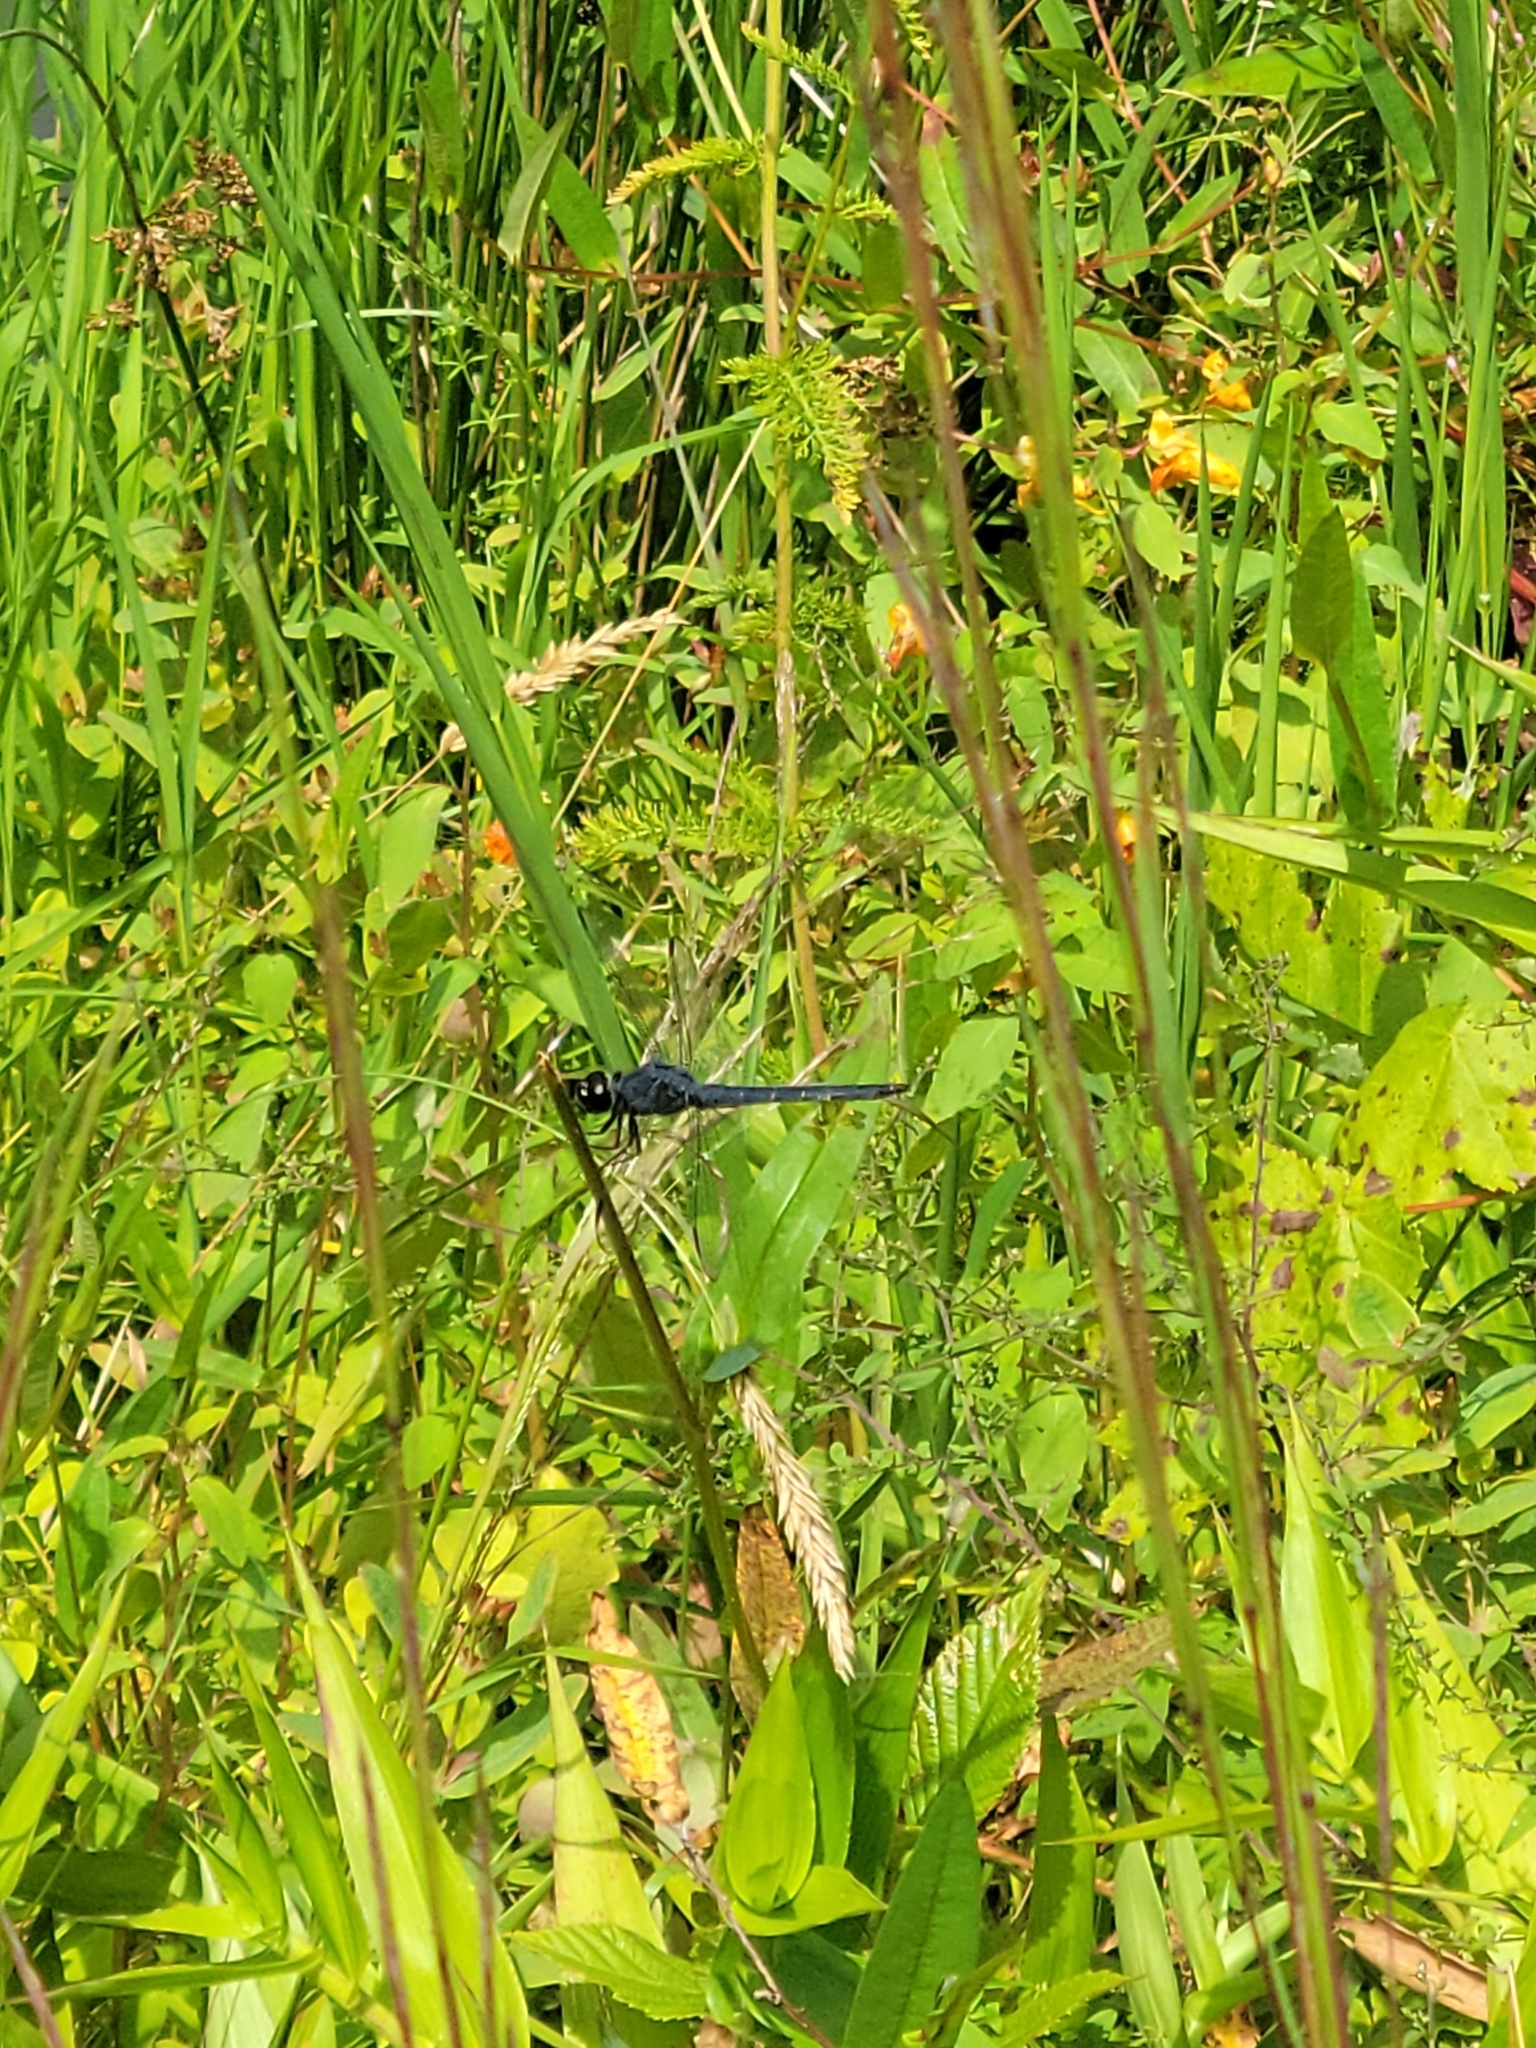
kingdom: Animalia
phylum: Arthropoda
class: Insecta
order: Odonata
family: Libellulidae
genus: Libellula
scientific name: Libellula incesta
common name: Slaty skimmer
